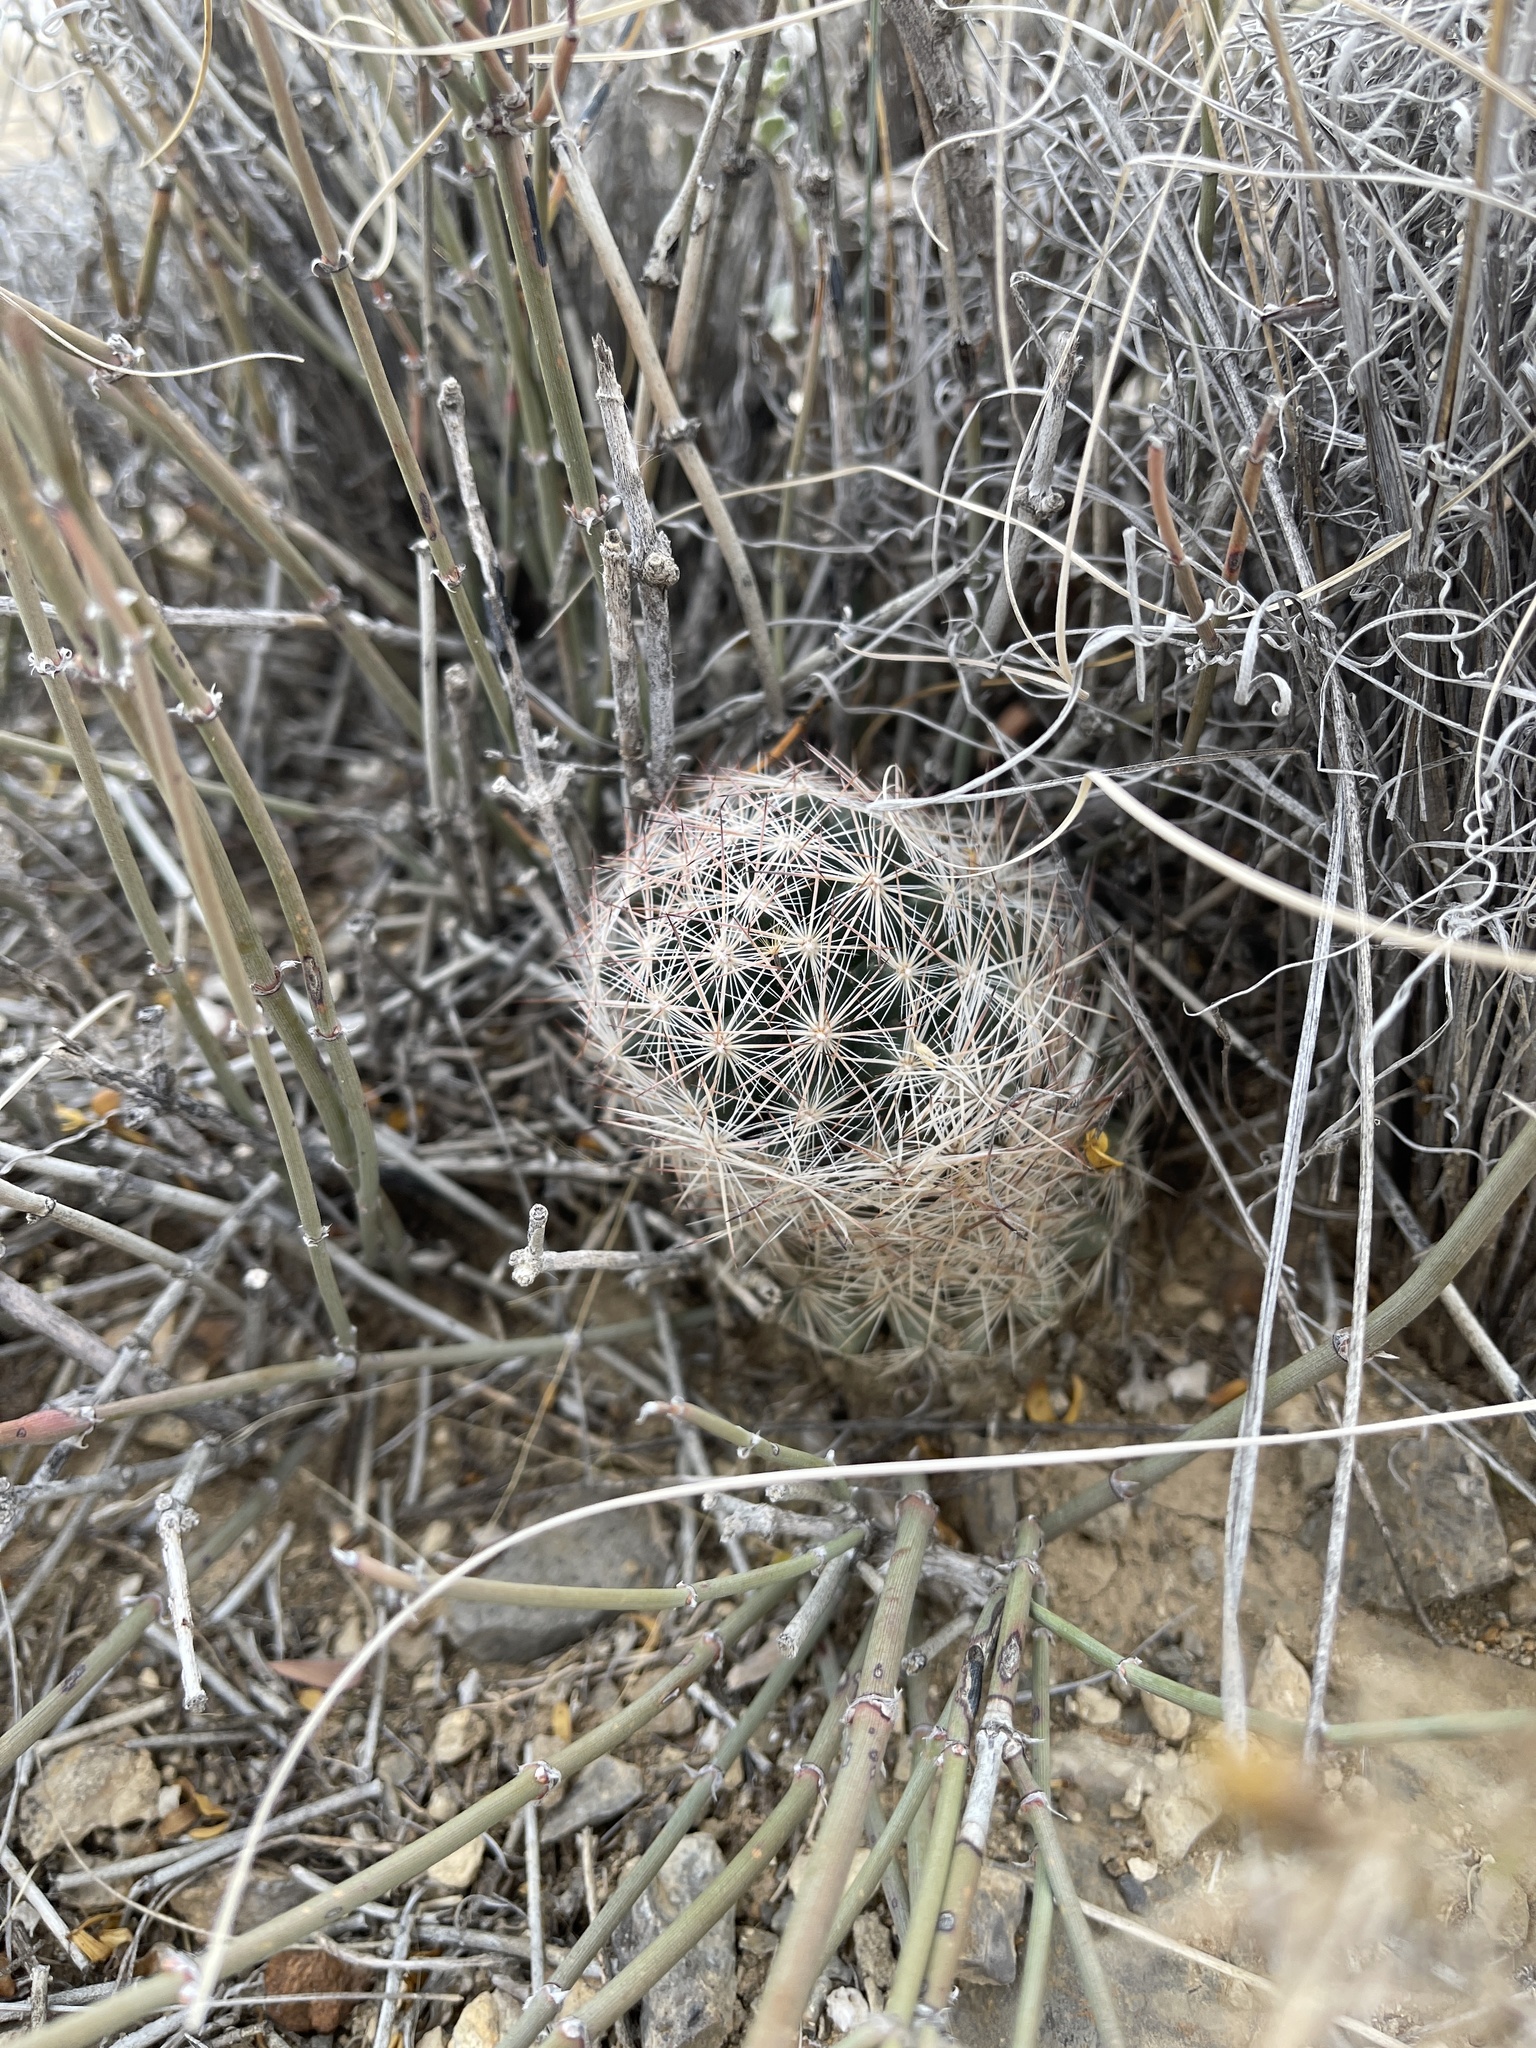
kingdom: Plantae
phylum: Tracheophyta
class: Magnoliopsida
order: Caryophyllales
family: Cactaceae
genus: Pelecyphora
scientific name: Pelecyphora vivipara
